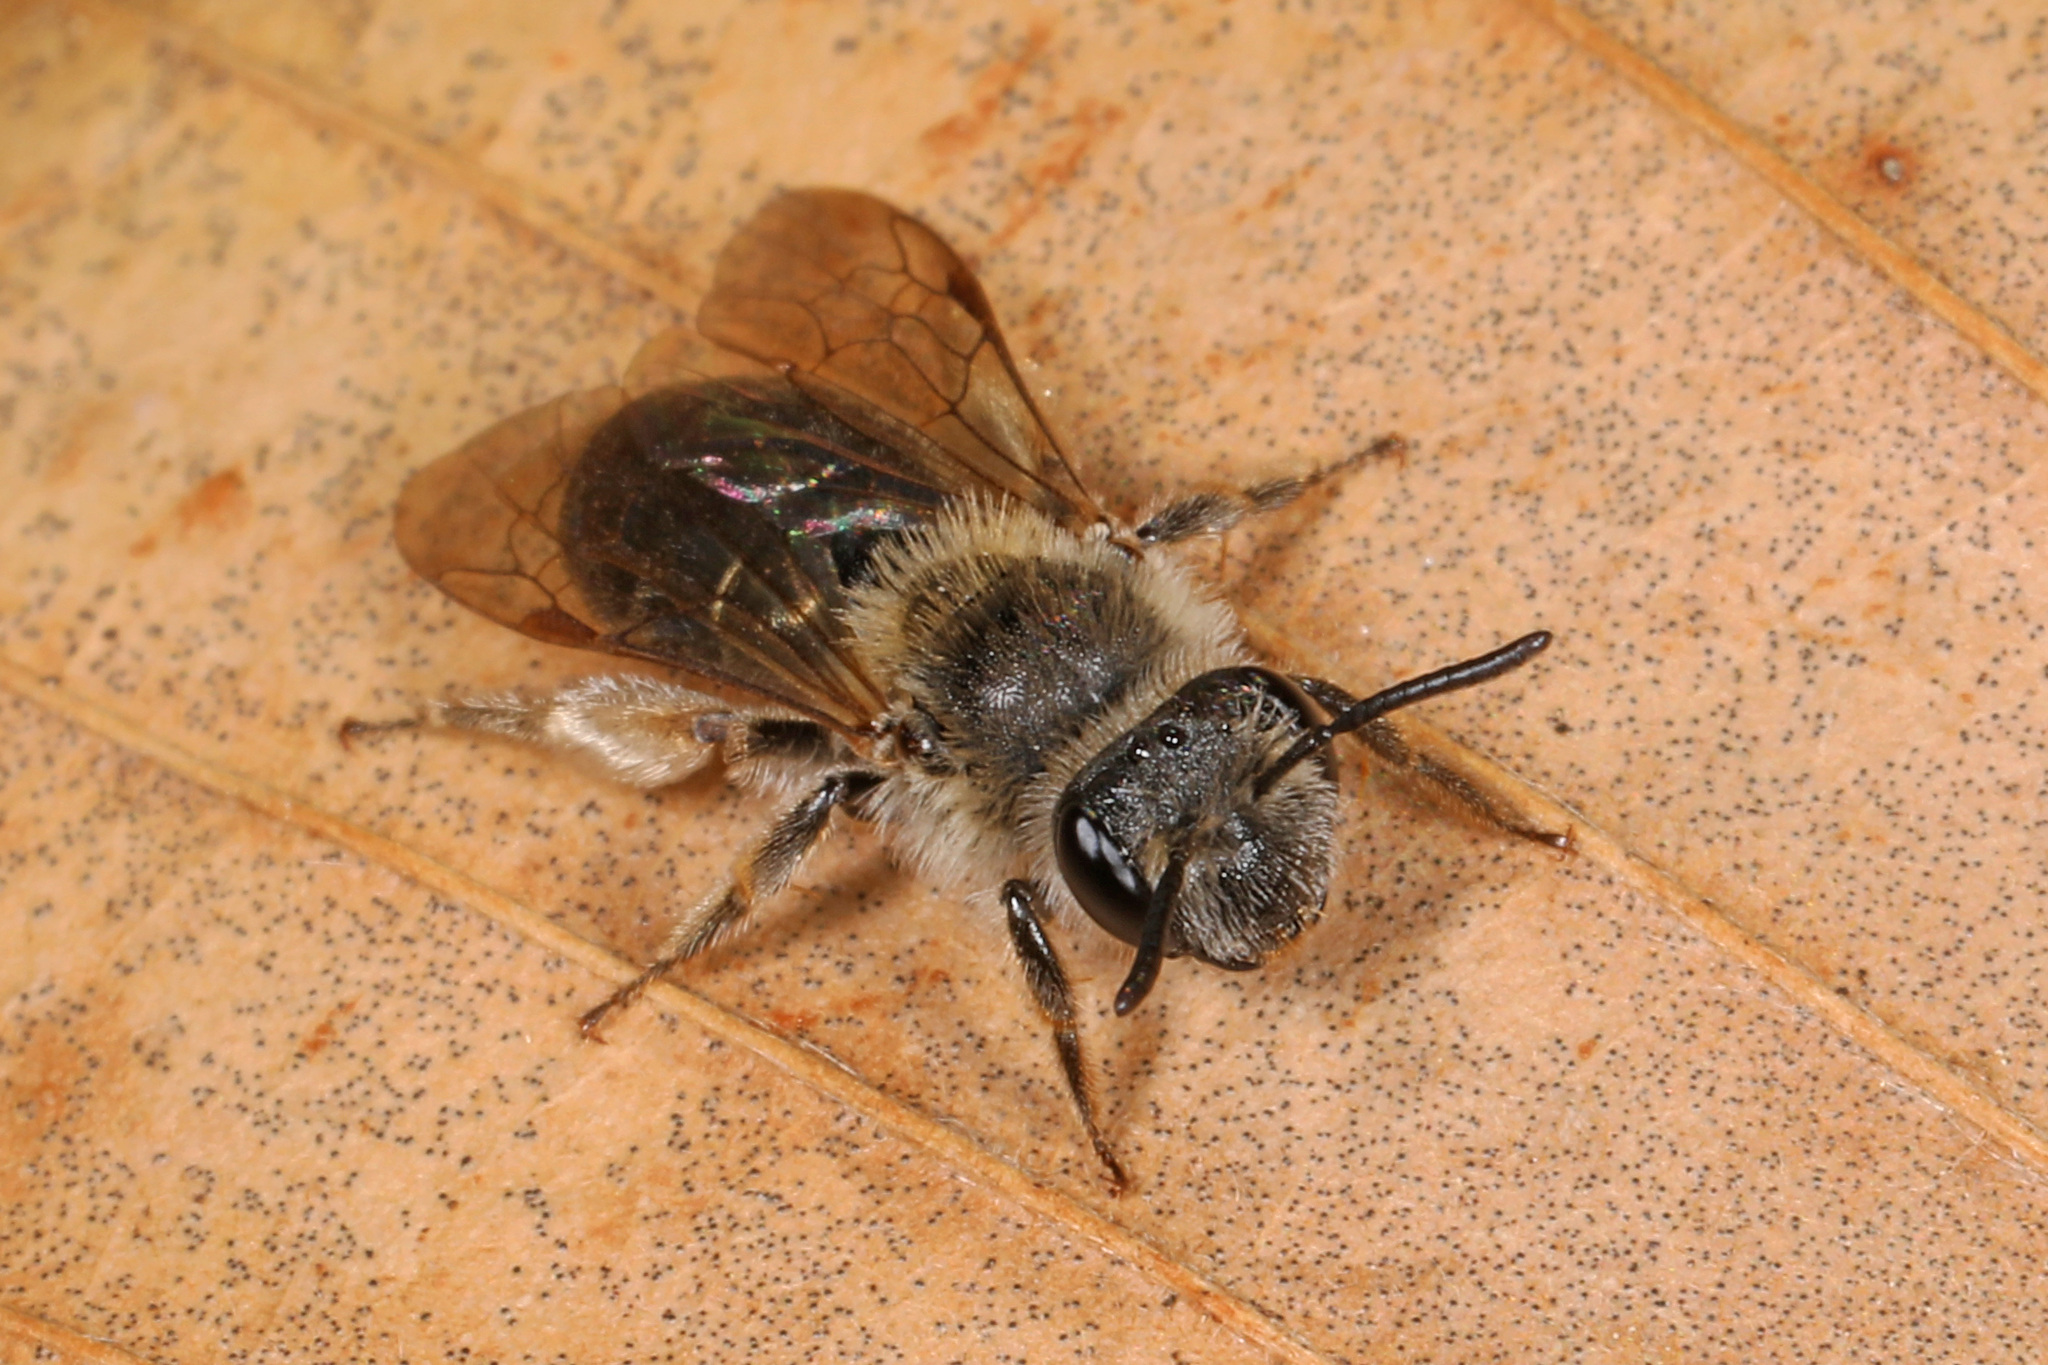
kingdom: Animalia
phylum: Arthropoda
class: Insecta
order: Hymenoptera
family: Andrenidae
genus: Andrena
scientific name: Andrena fenningeri
